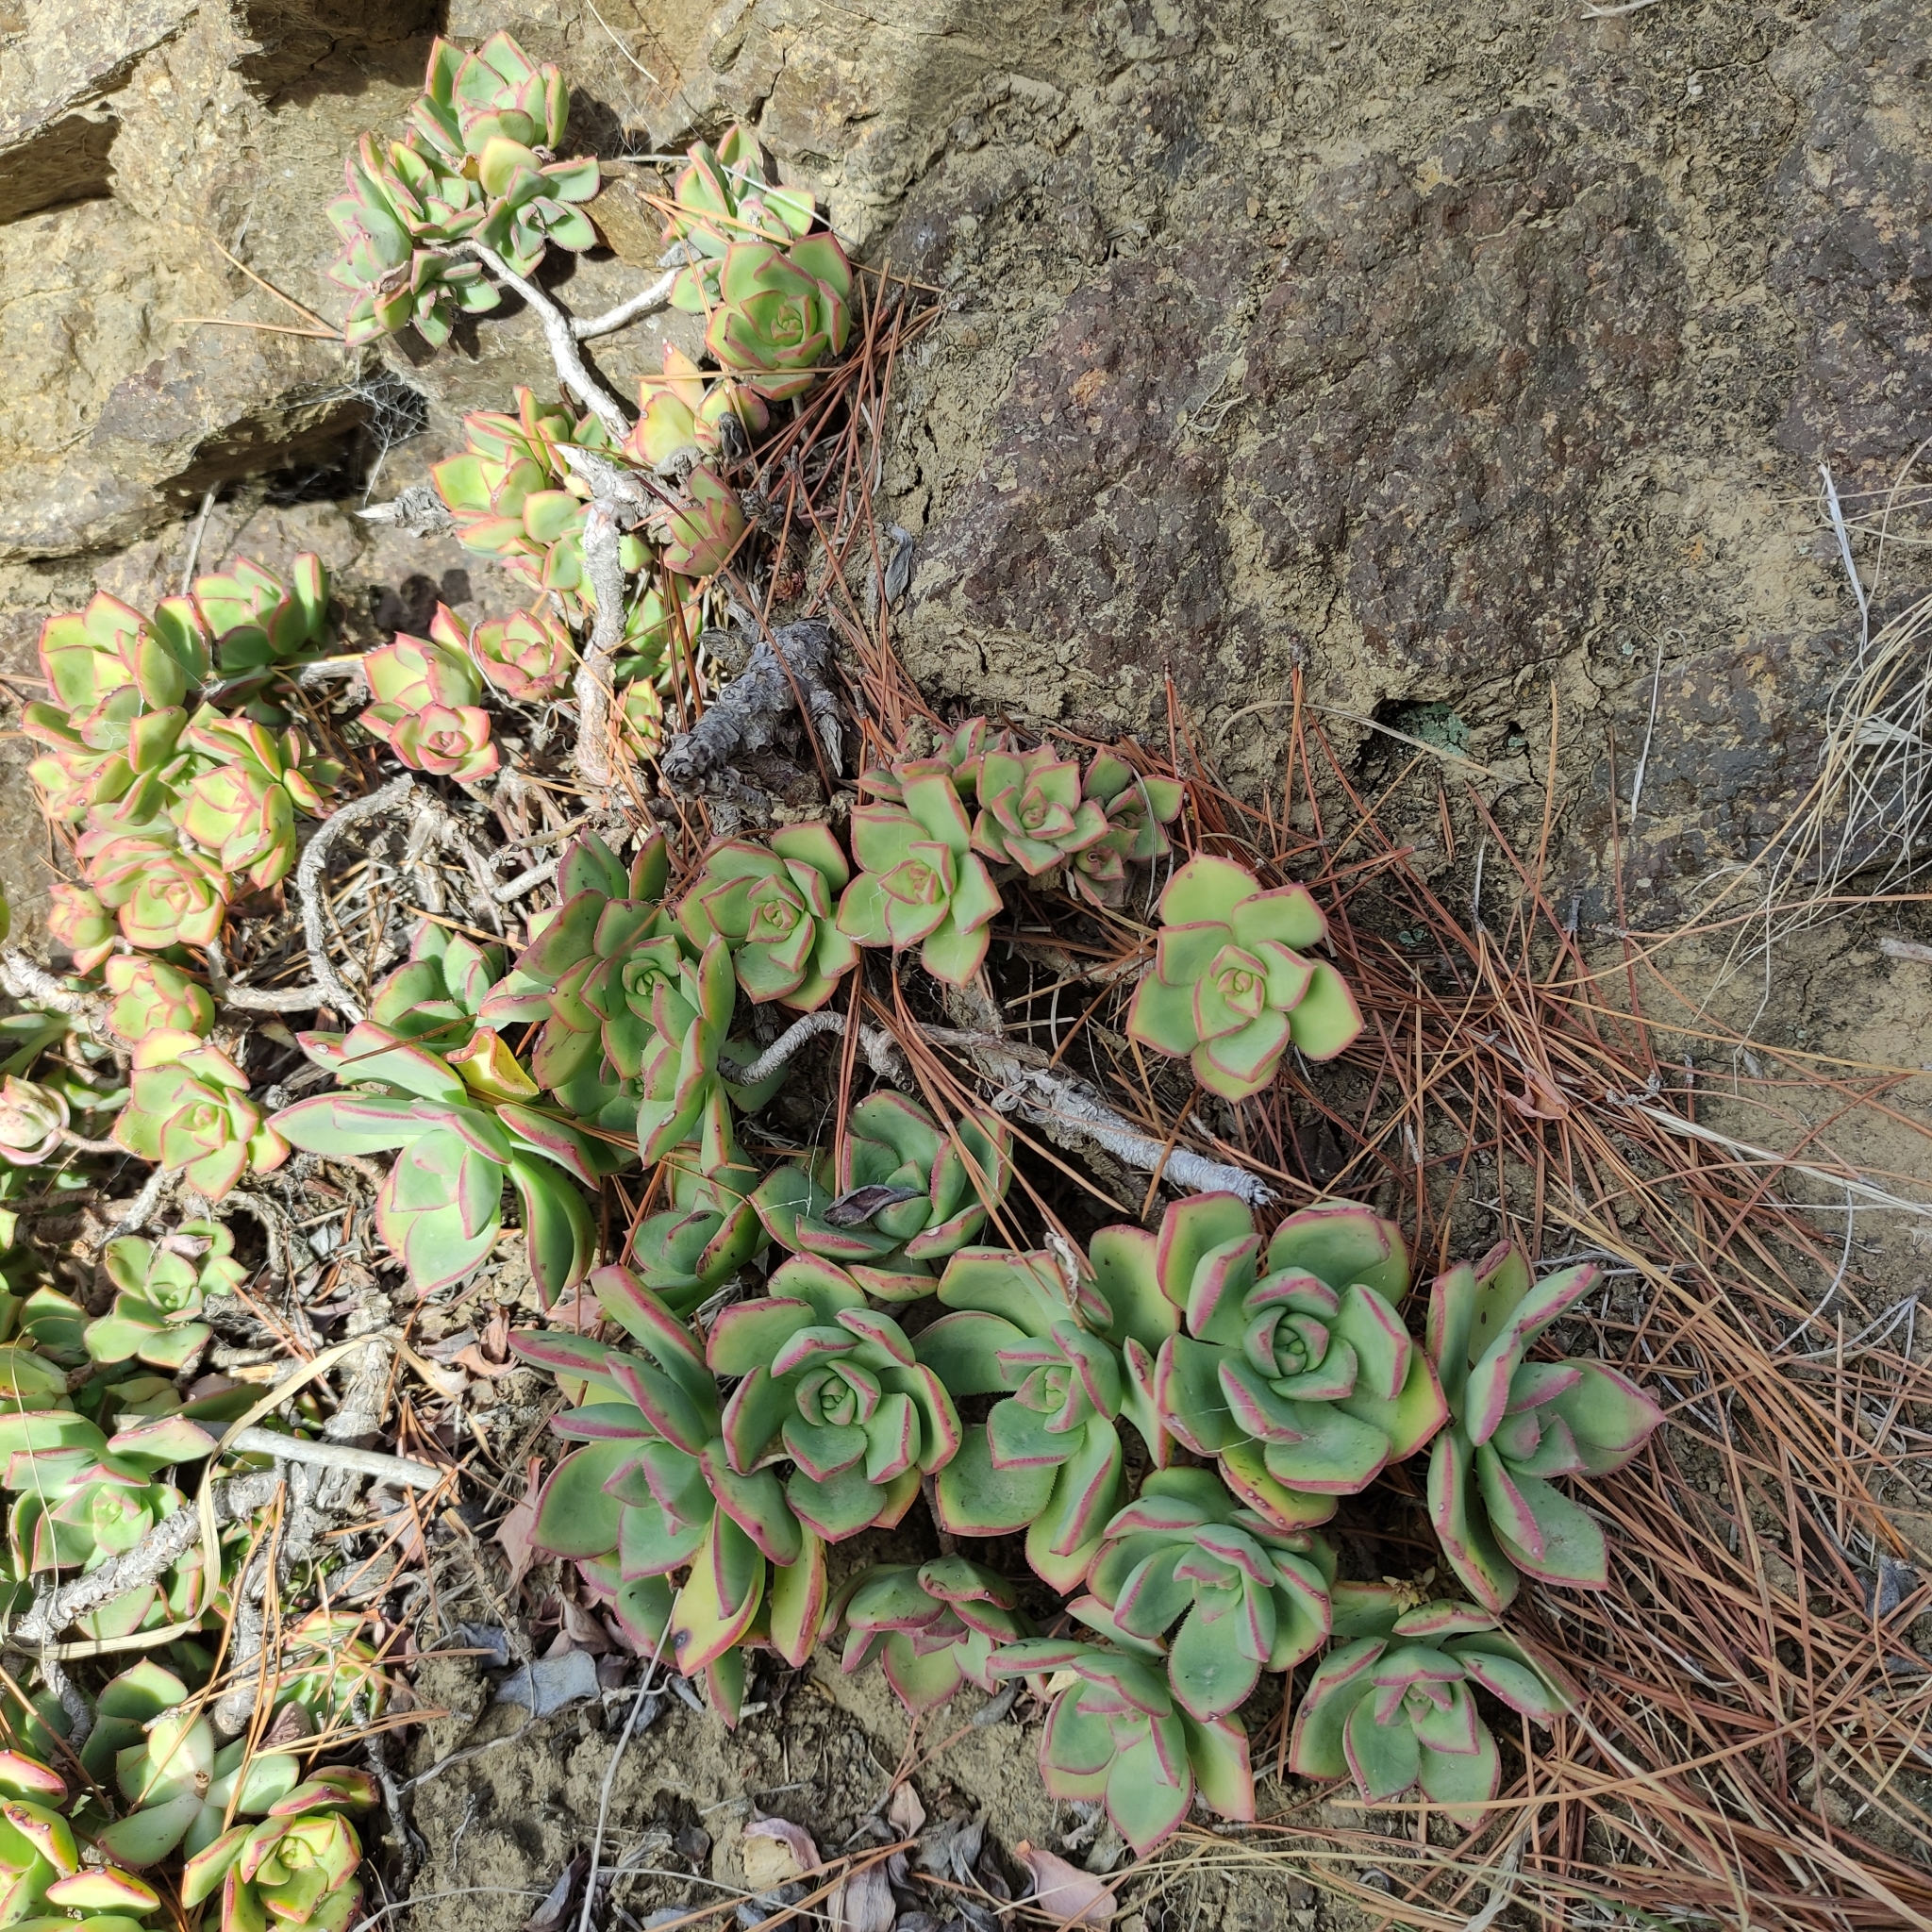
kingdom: Plantae
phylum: Tracheophyta
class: Magnoliopsida
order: Saxifragales
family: Crassulaceae
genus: Aeonium
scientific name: Aeonium haworthii
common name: Haworth's aeonium
